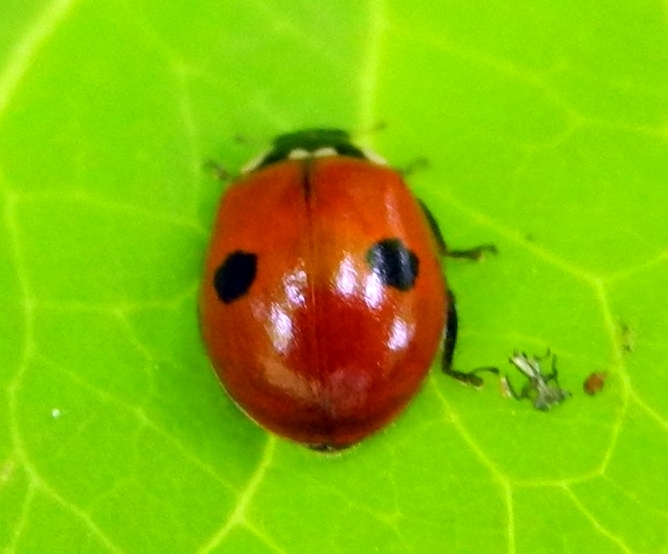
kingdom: Animalia
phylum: Arthropoda
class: Insecta
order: Coleoptera
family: Coccinellidae
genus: Adalia
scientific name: Adalia bipunctata
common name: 2-spot ladybird
